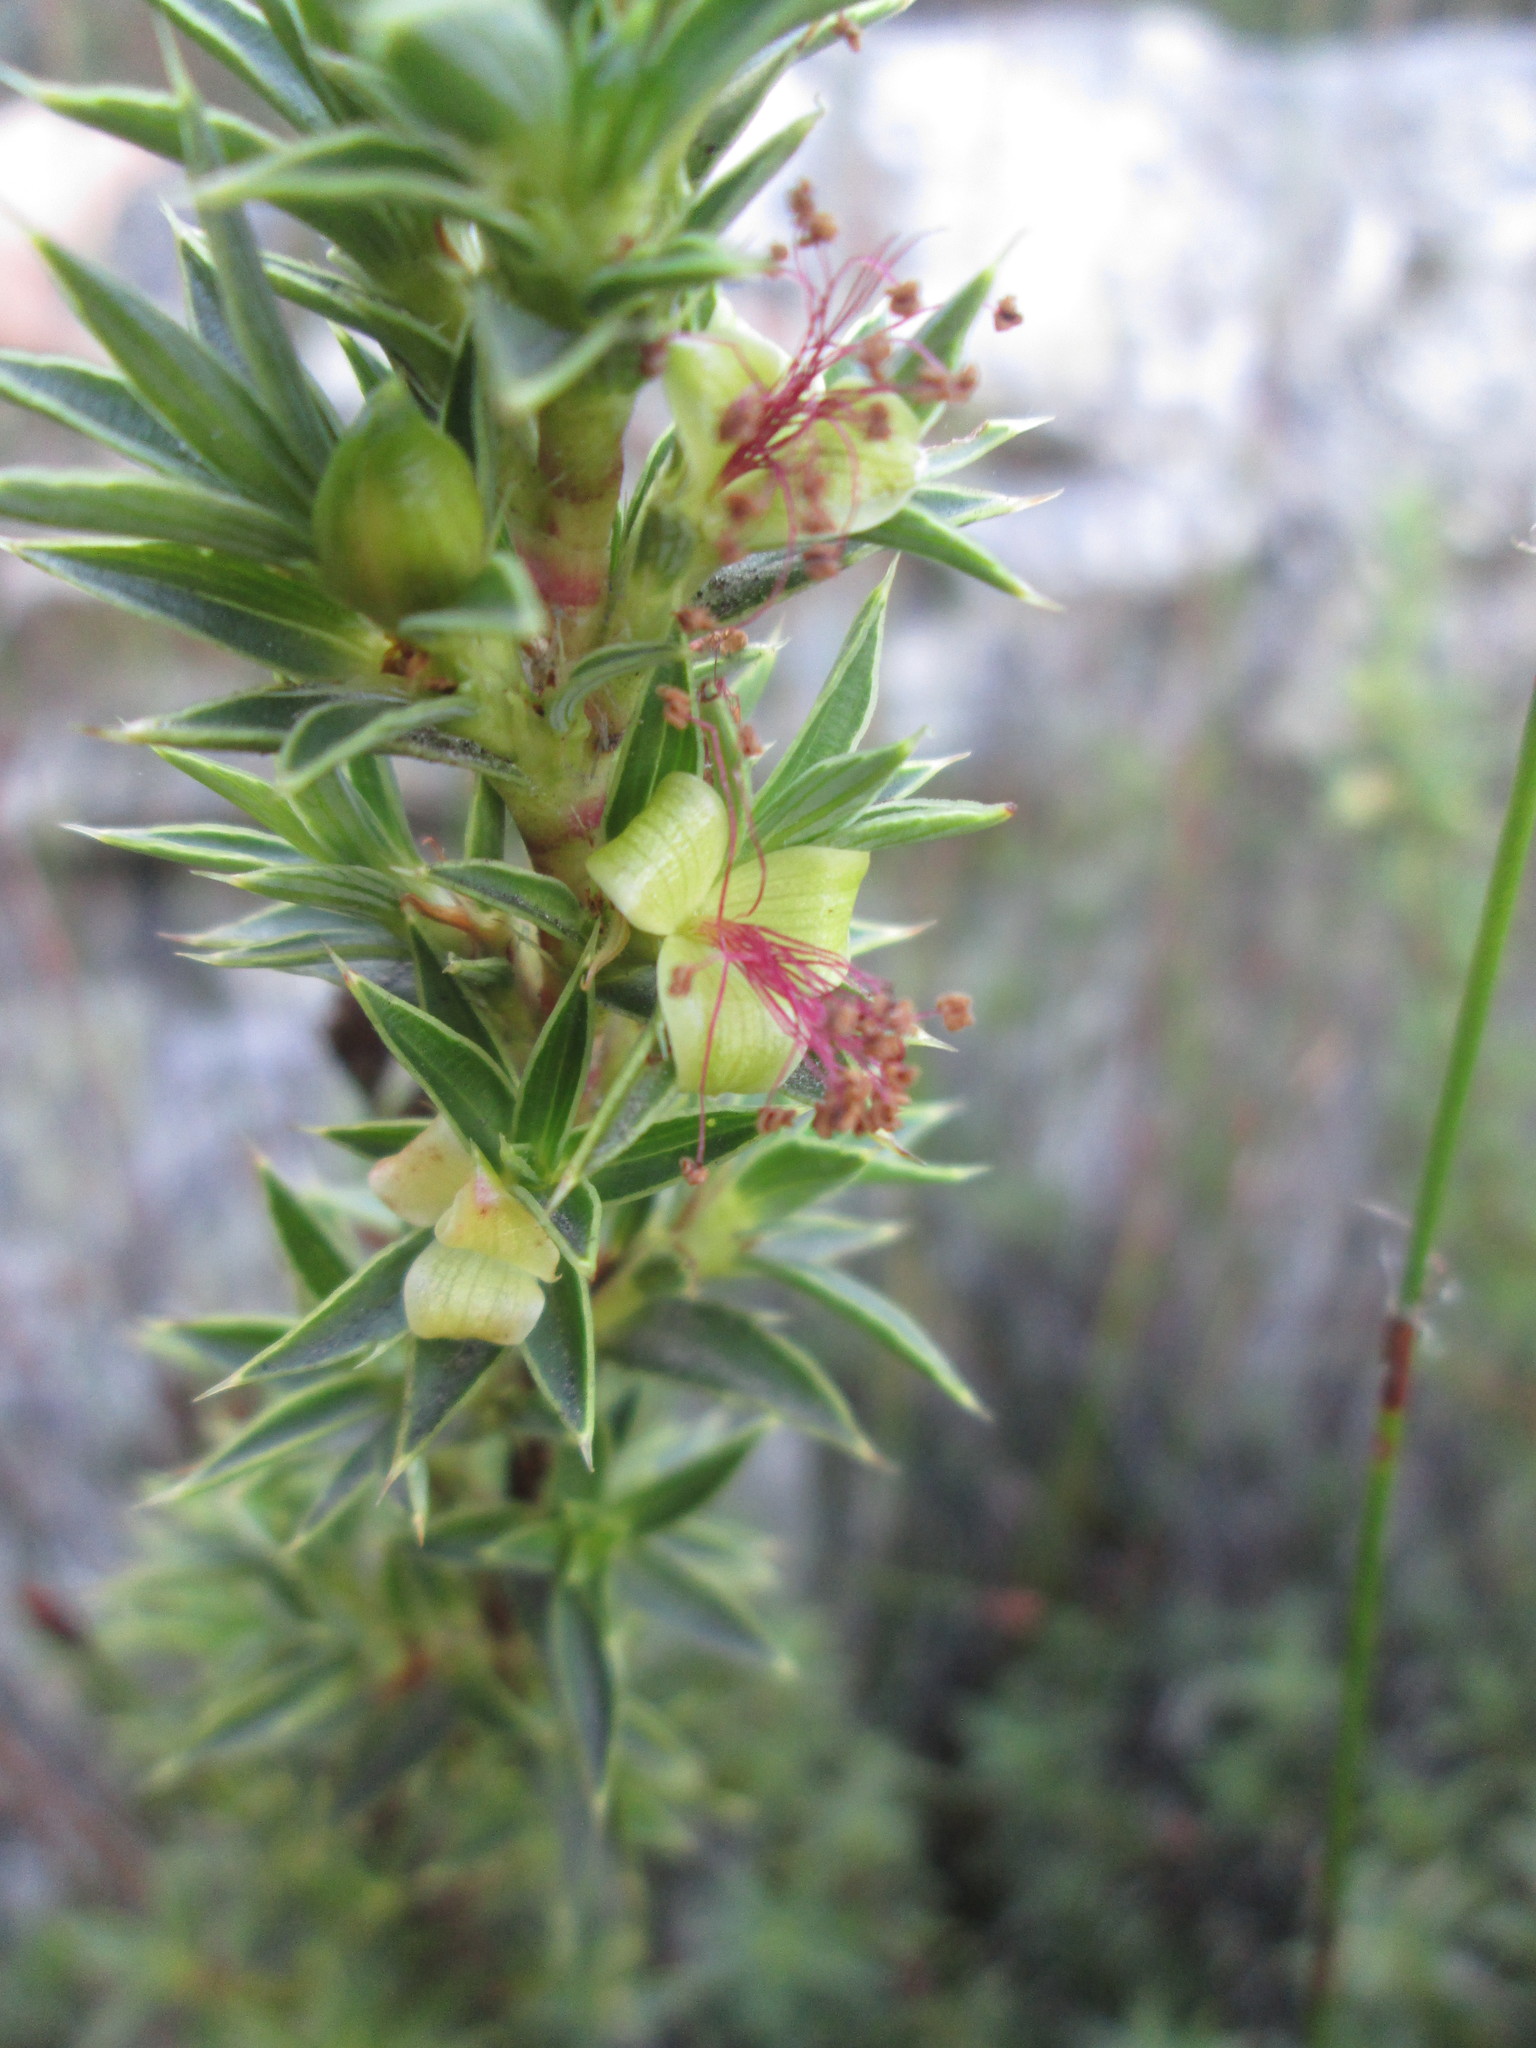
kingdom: Plantae
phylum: Tracheophyta
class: Magnoliopsida
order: Rosales
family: Rosaceae
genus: Cliffortia
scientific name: Cliffortia theodori-friesii
